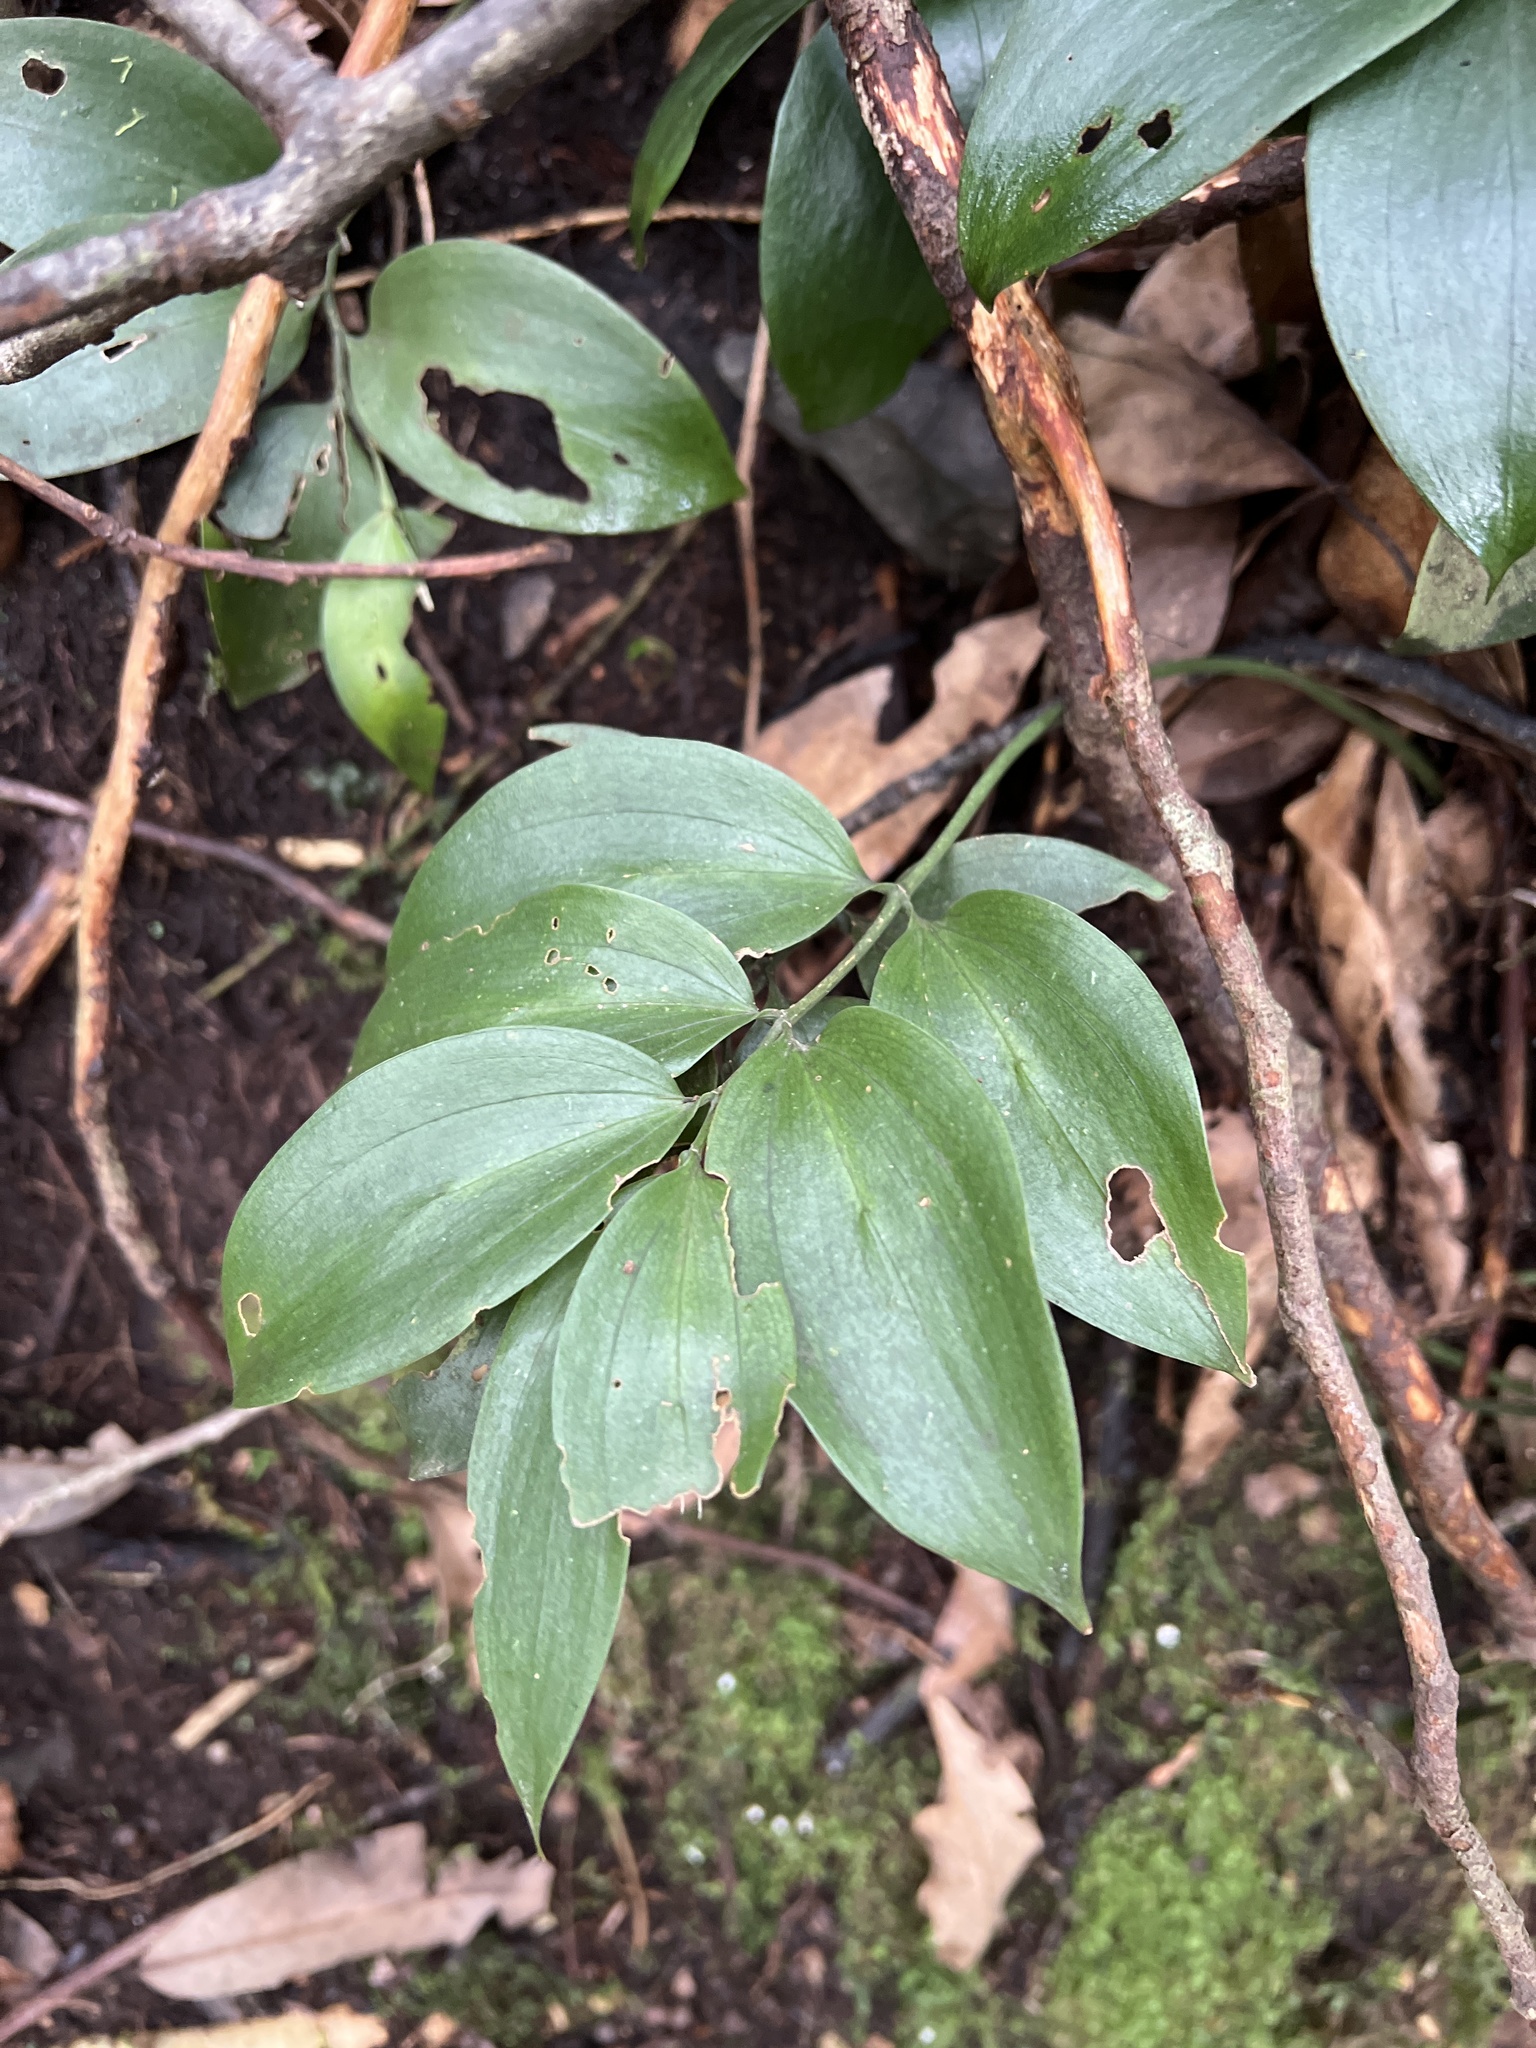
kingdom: Plantae
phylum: Tracheophyta
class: Liliopsida
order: Asparagales
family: Asparagaceae
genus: Ruscus
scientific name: Ruscus streptophyllus
